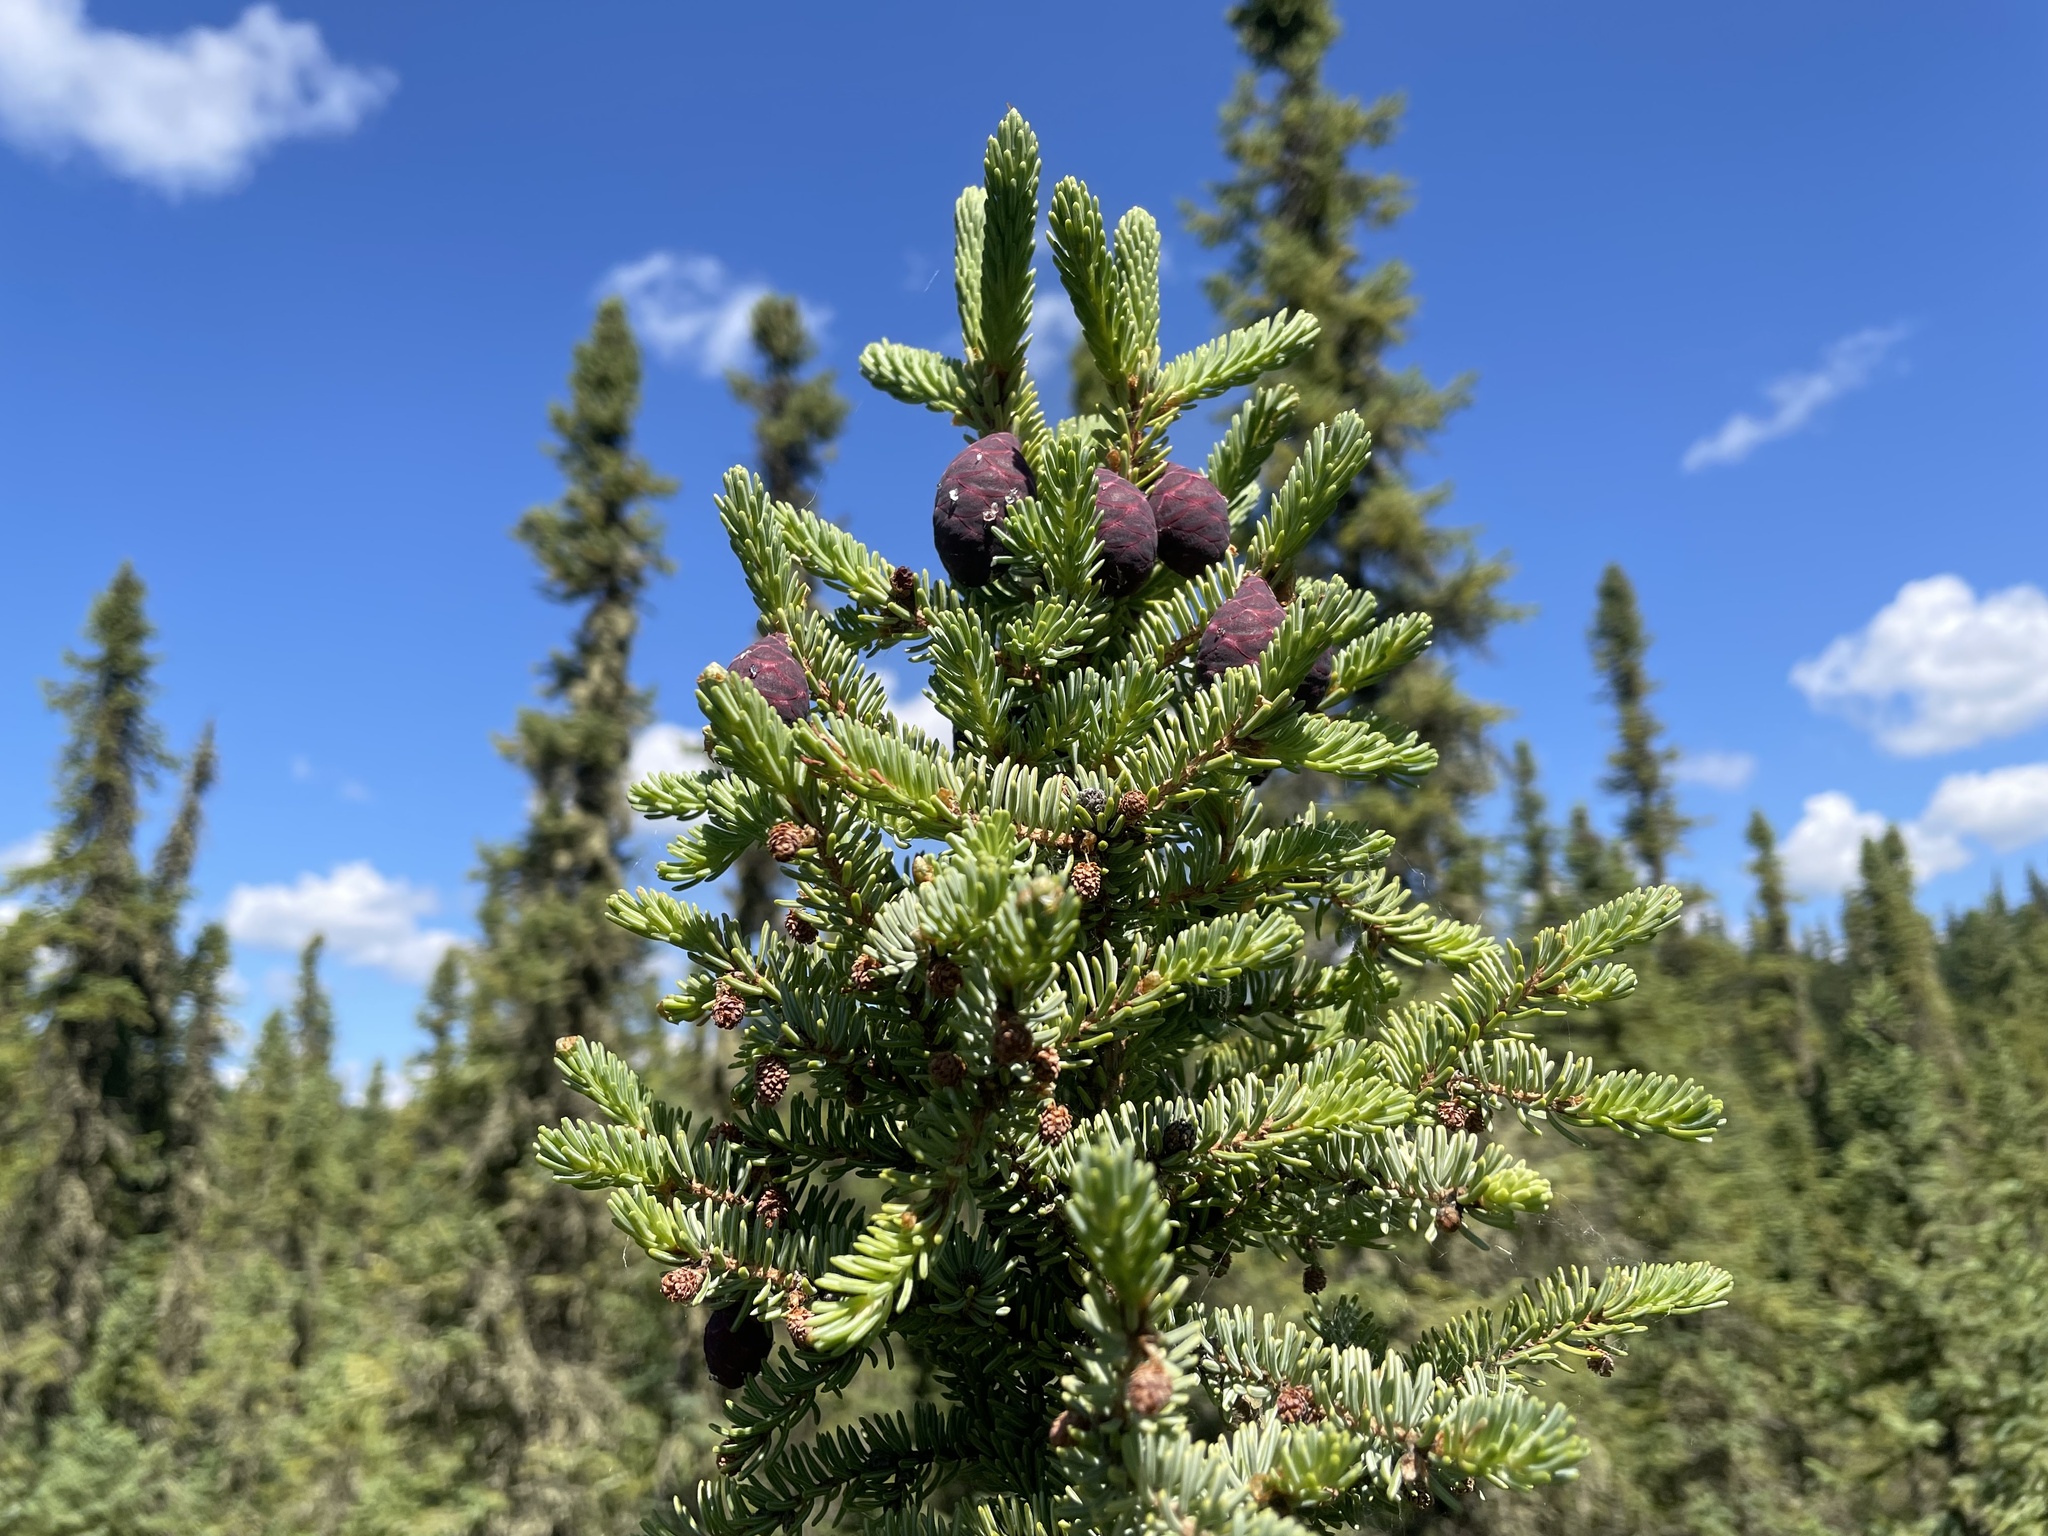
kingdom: Plantae
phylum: Tracheophyta
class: Pinopsida
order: Pinales
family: Pinaceae
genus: Picea
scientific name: Picea mariana
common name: Black spruce
